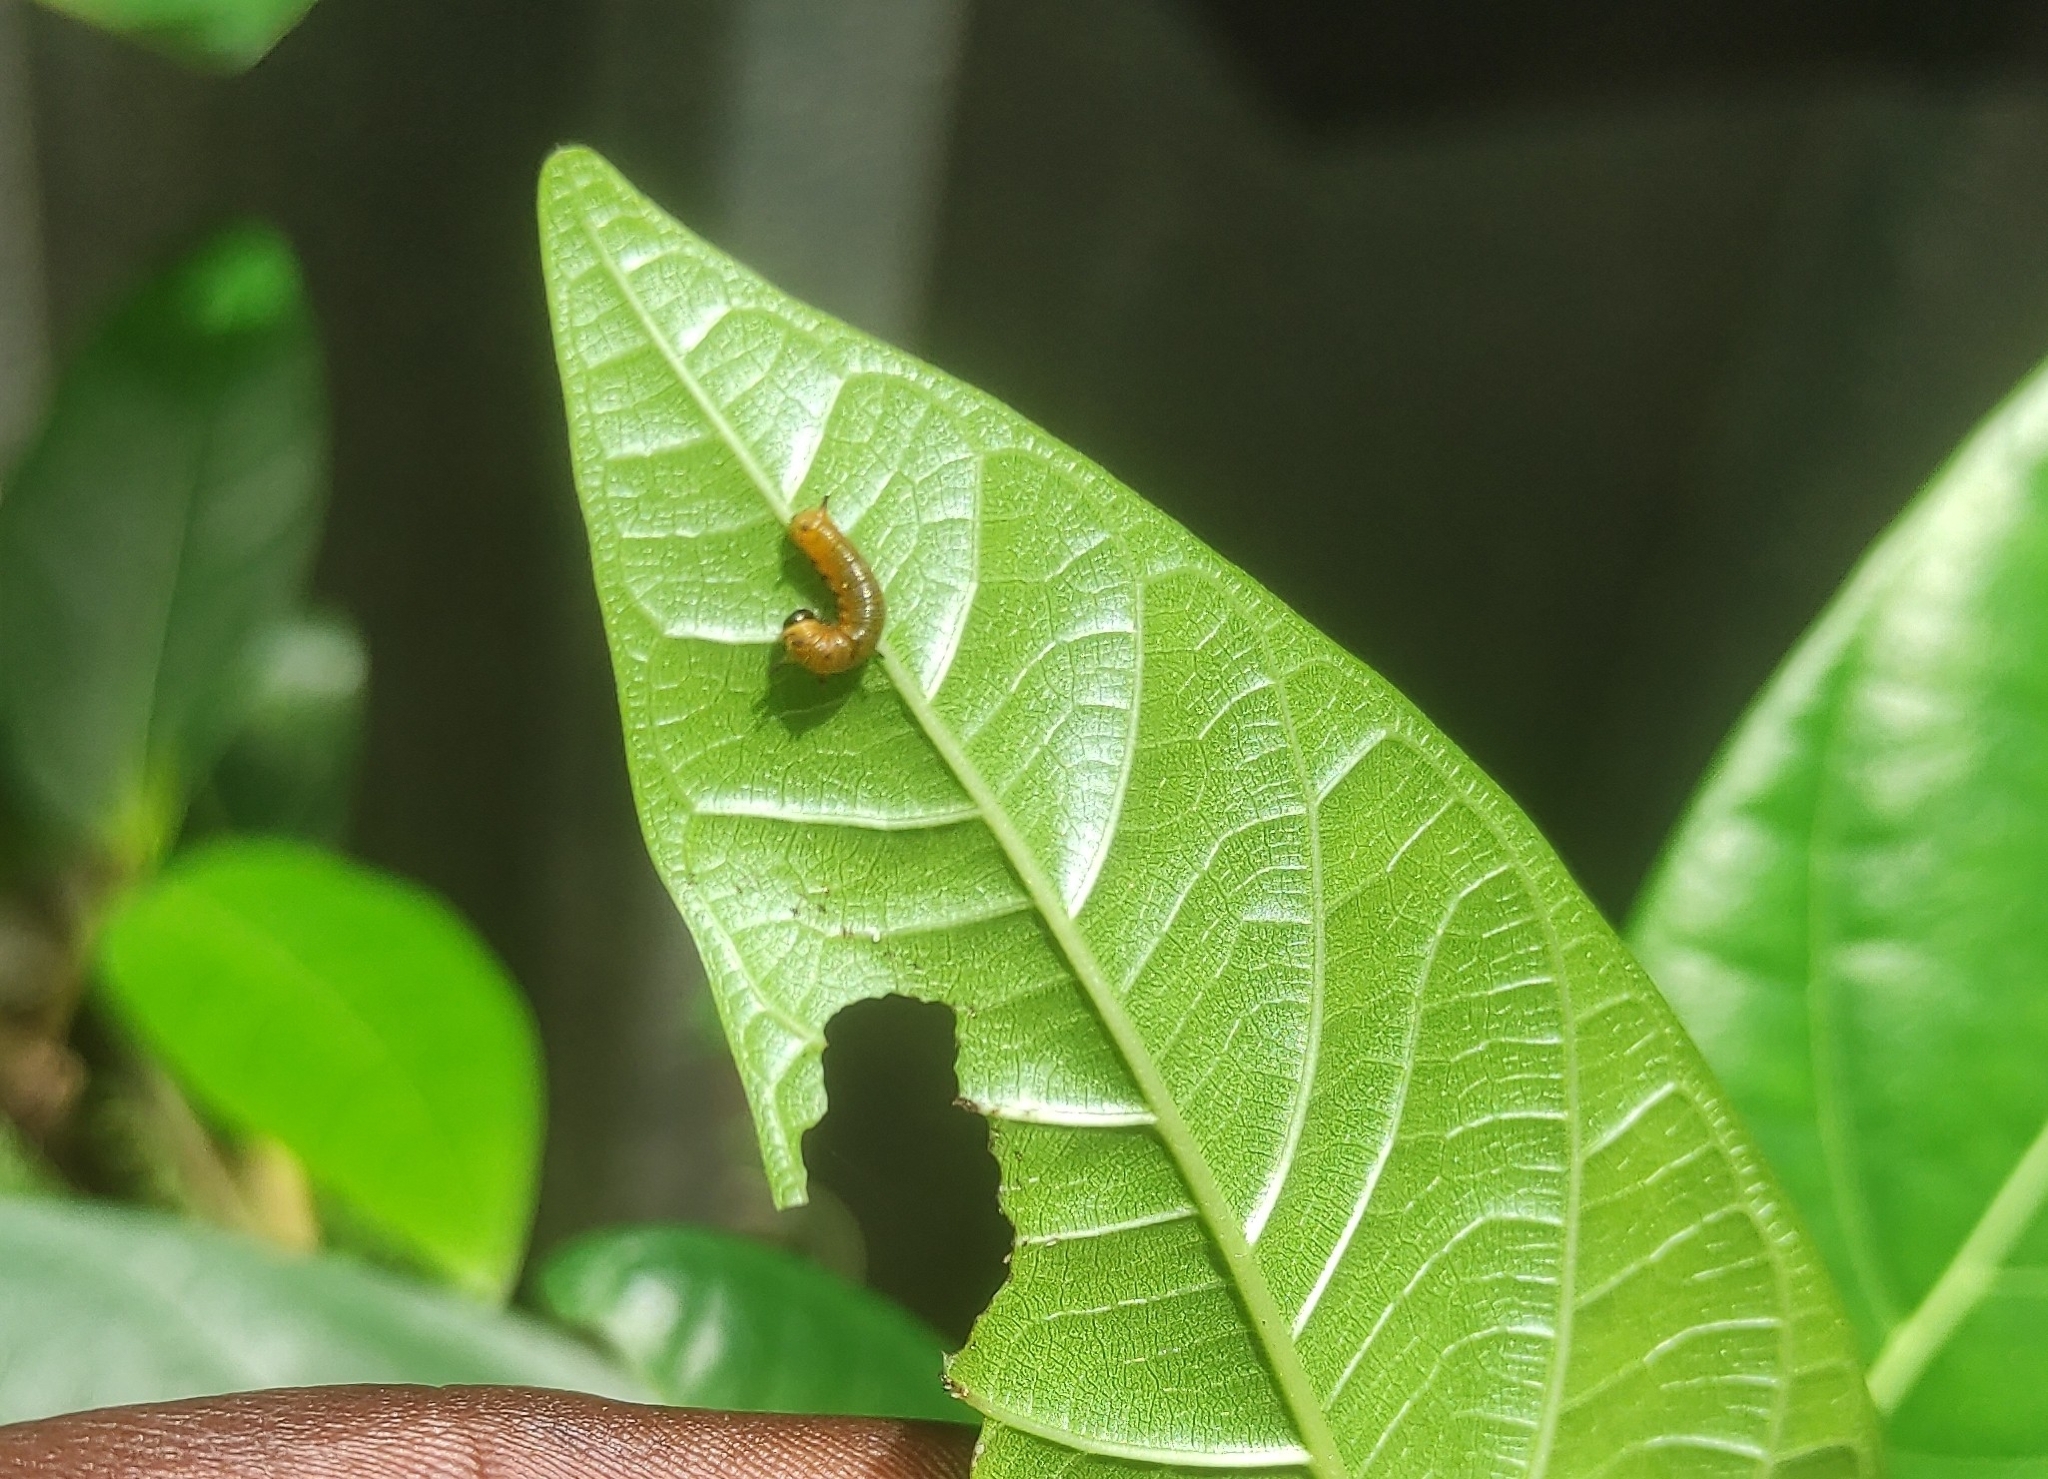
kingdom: Animalia
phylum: Arthropoda
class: Insecta
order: Lepidoptera
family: Nymphalidae
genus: Euploea
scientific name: Euploea core
